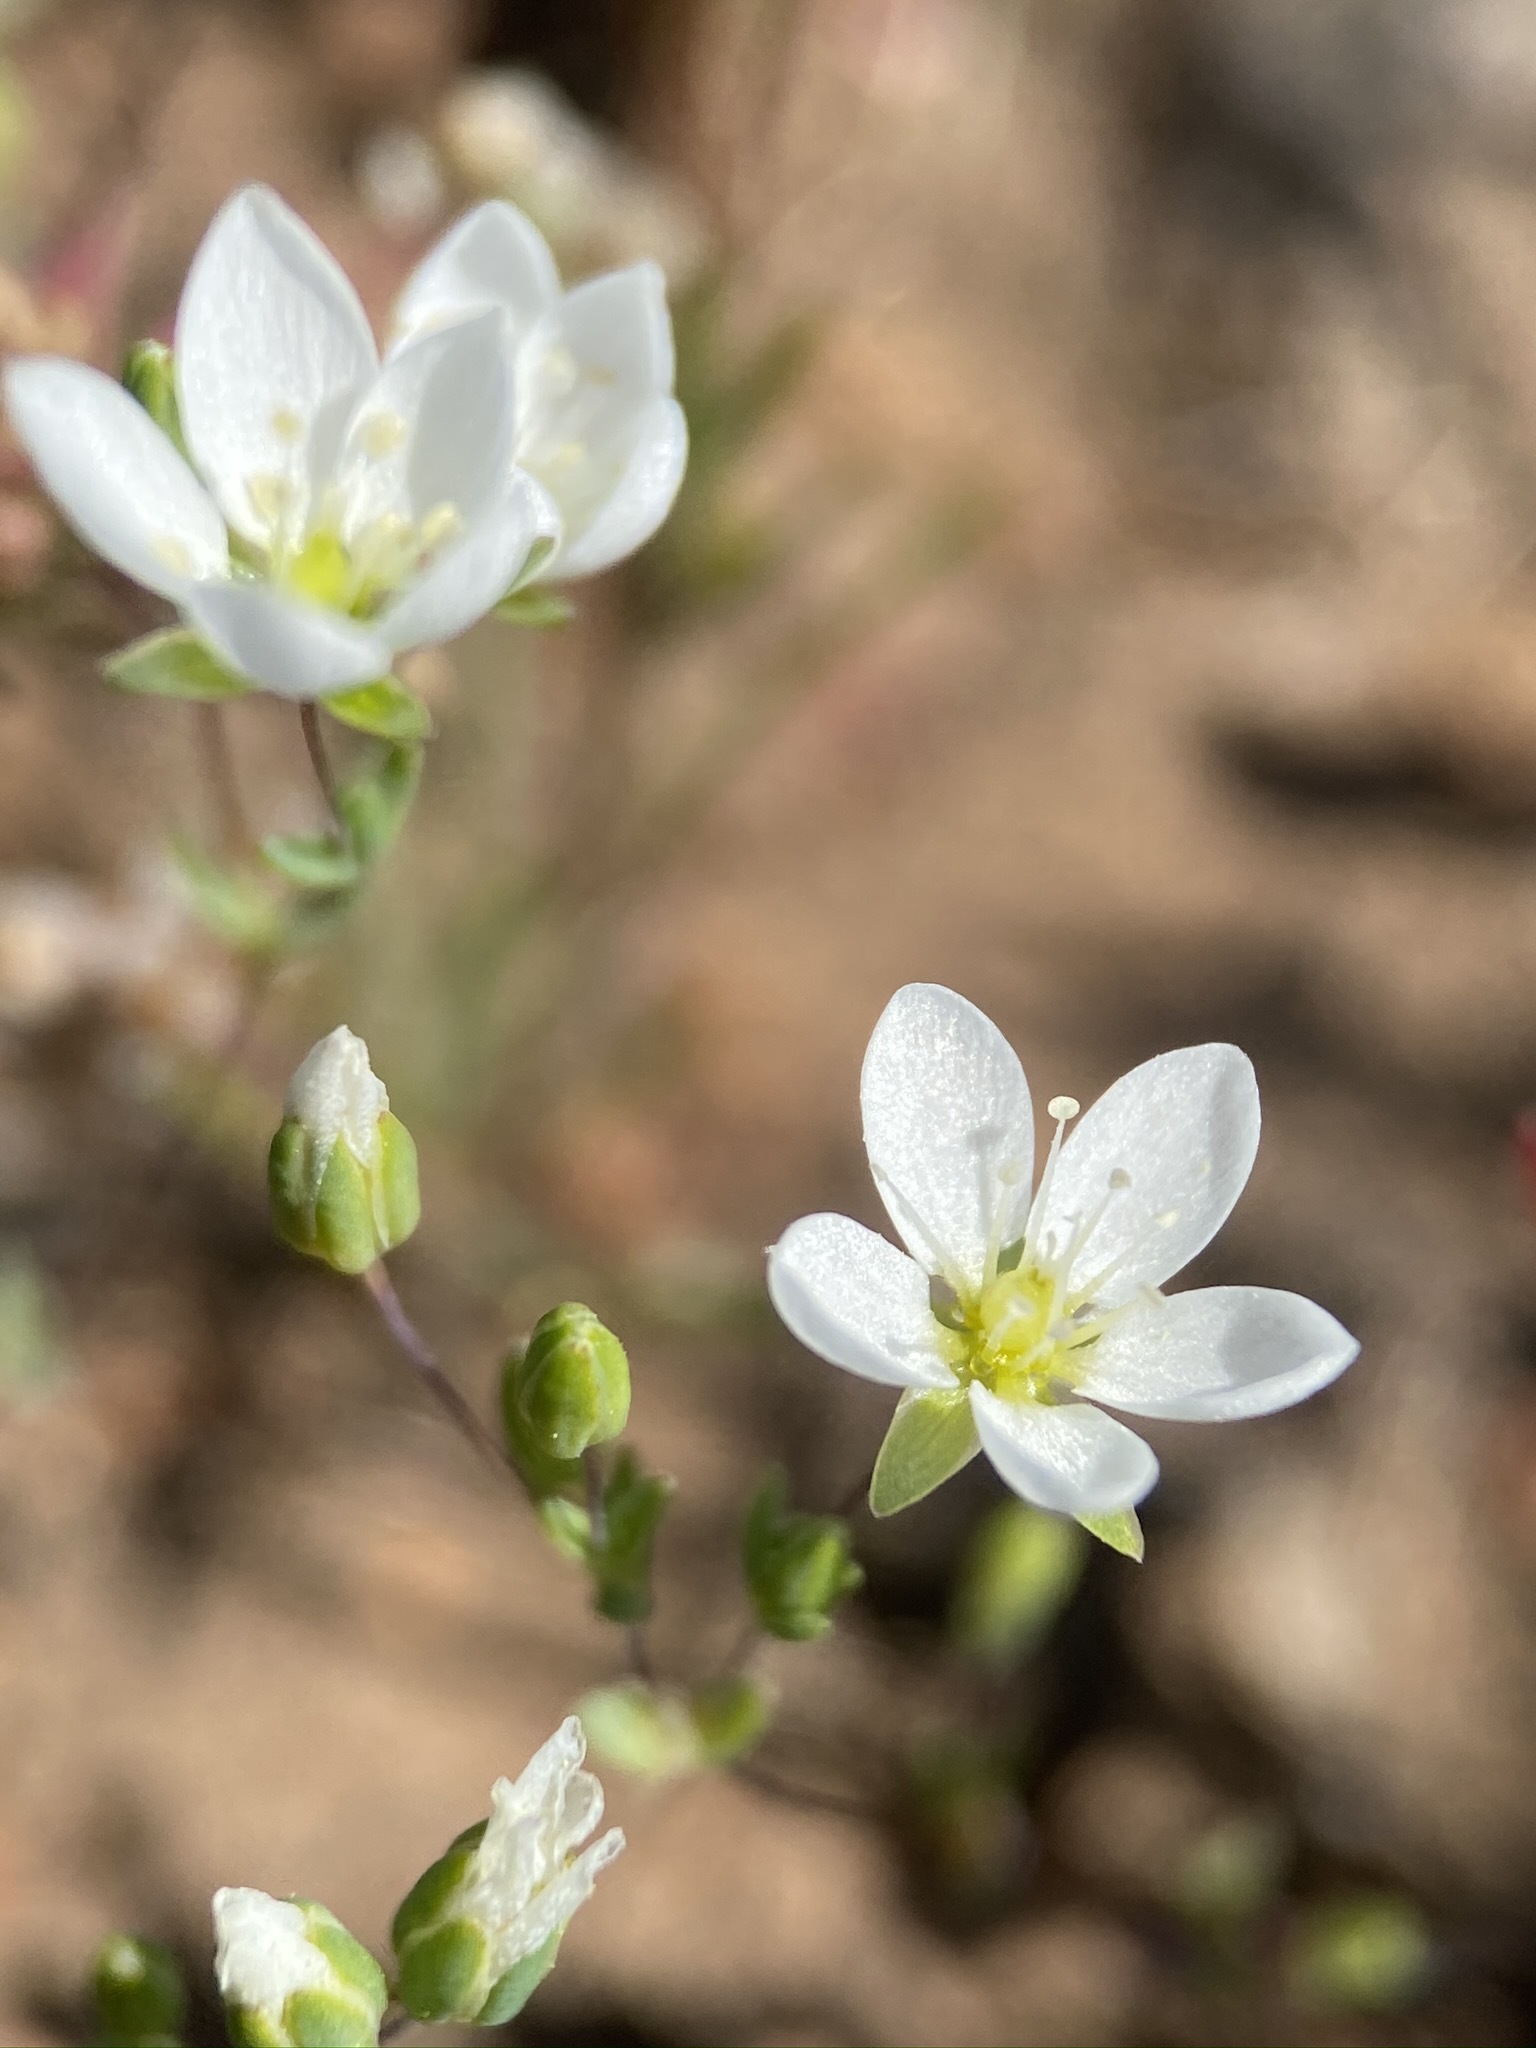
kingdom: Plantae
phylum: Tracheophyta
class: Magnoliopsida
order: Caryophyllales
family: Caryophyllaceae
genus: Sabulina
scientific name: Sabulina californica
